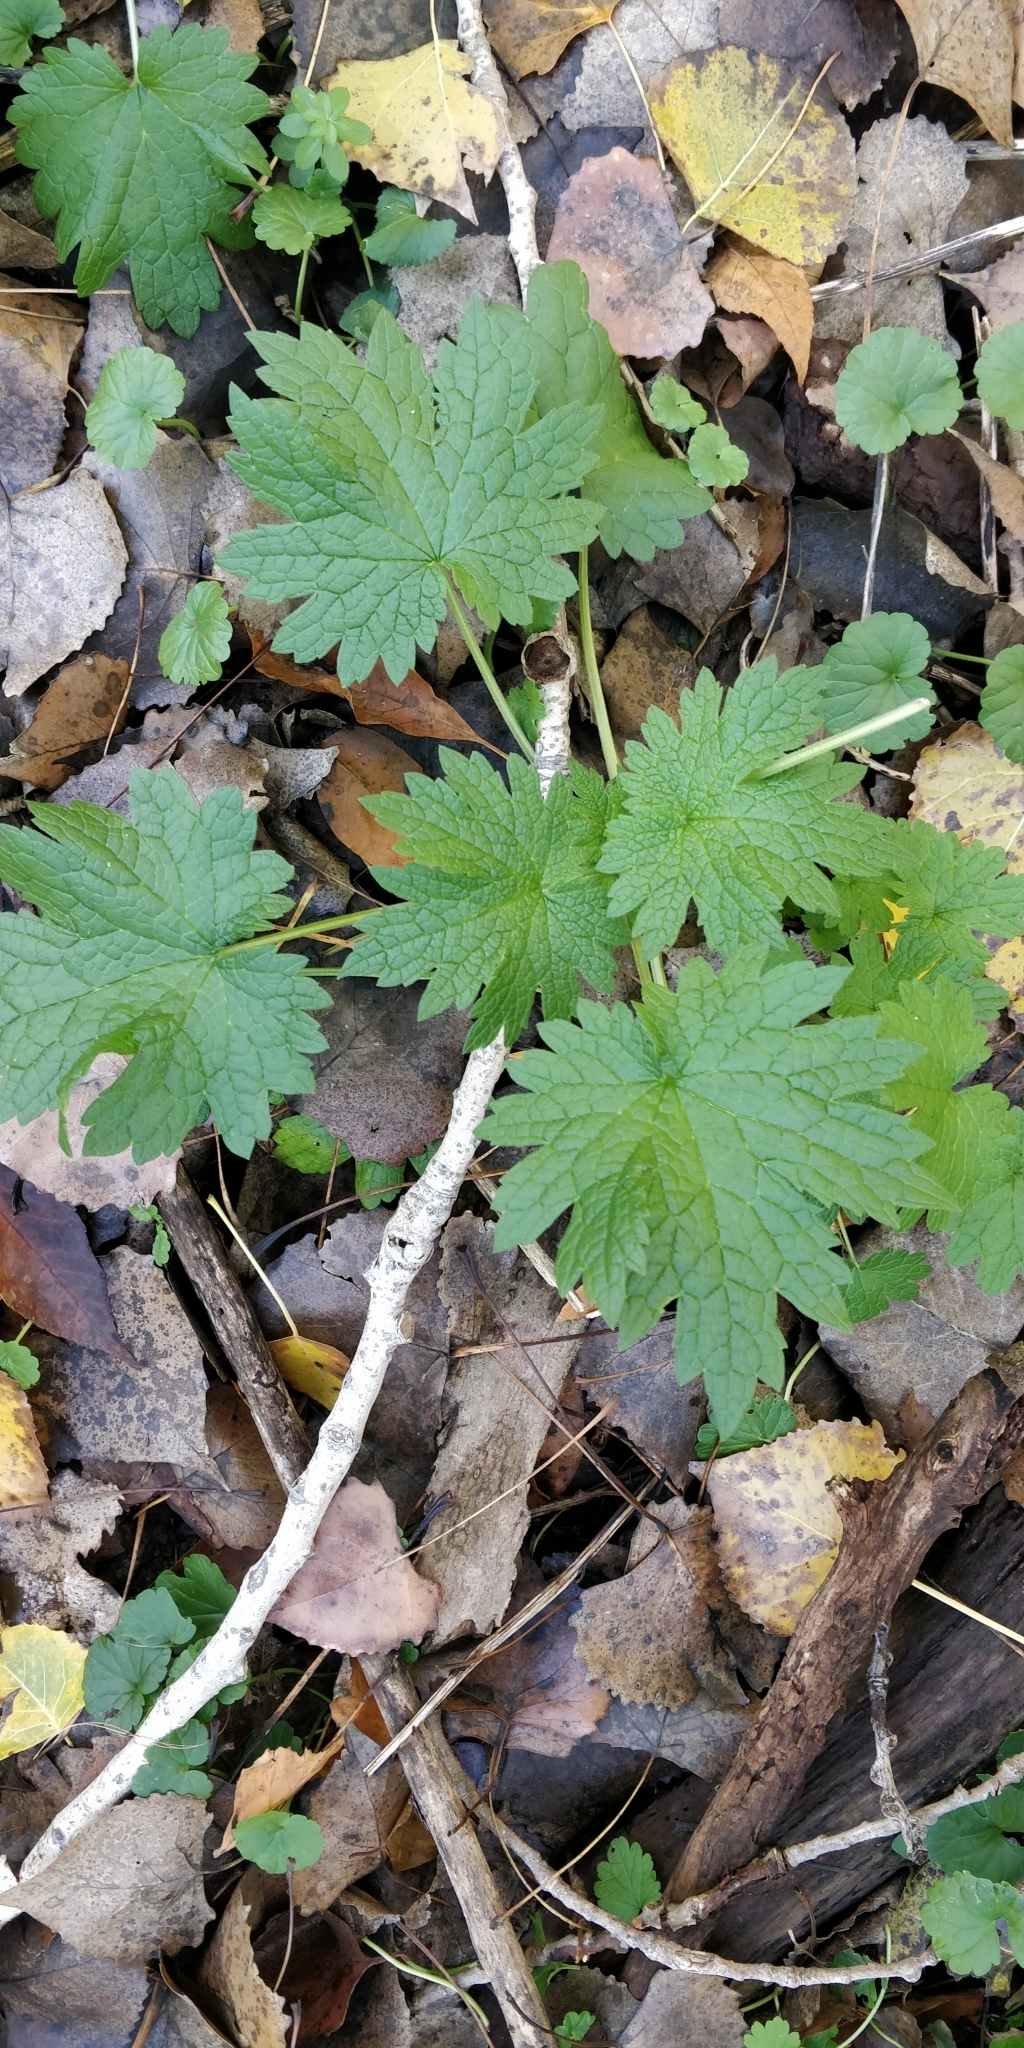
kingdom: Plantae
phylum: Tracheophyta
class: Magnoliopsida
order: Lamiales
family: Lamiaceae
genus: Leonurus
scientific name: Leonurus cardiaca
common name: Motherwort
